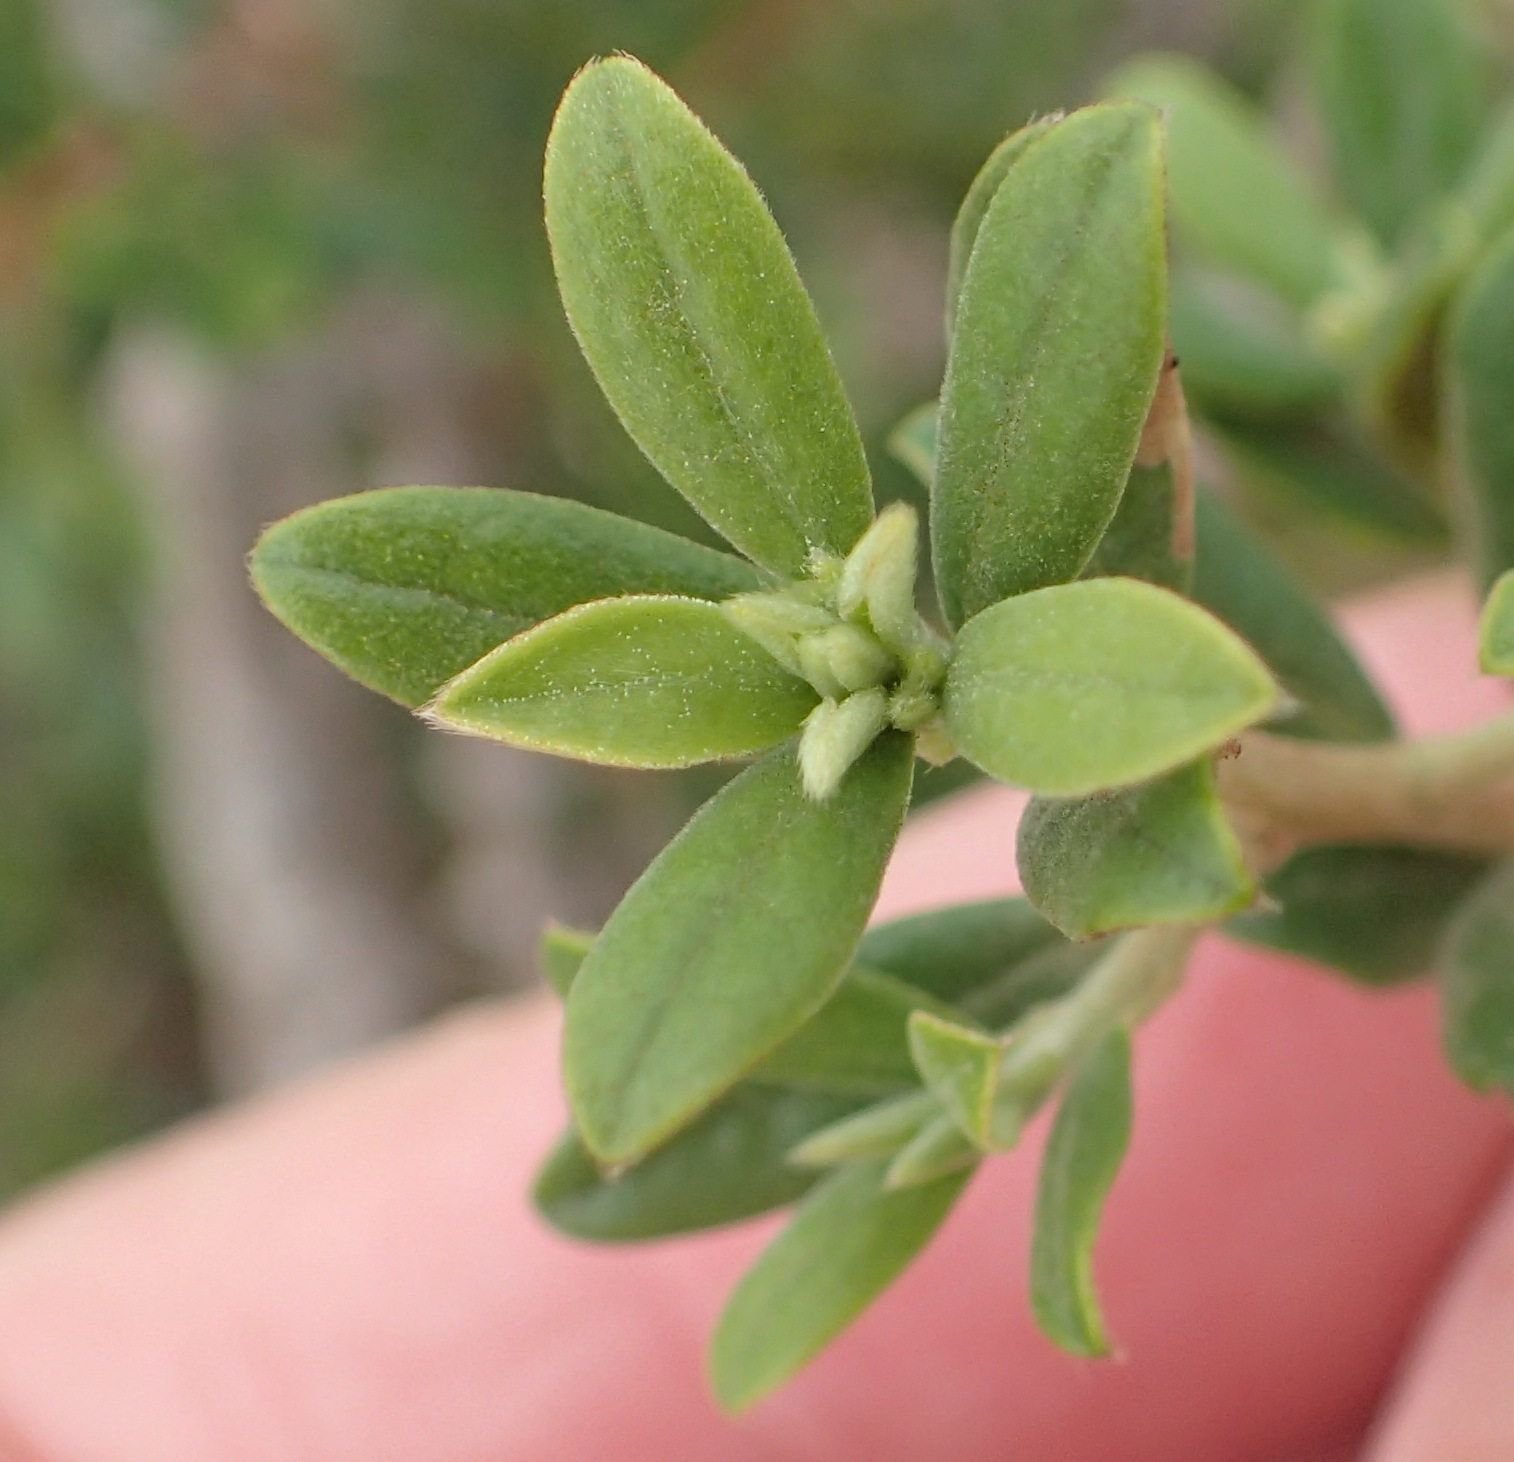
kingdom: Plantae
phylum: Tracheophyta
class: Magnoliopsida
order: Ericales
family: Ebenaceae
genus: Diospyros
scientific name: Diospyros lycioides
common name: Red star apple
